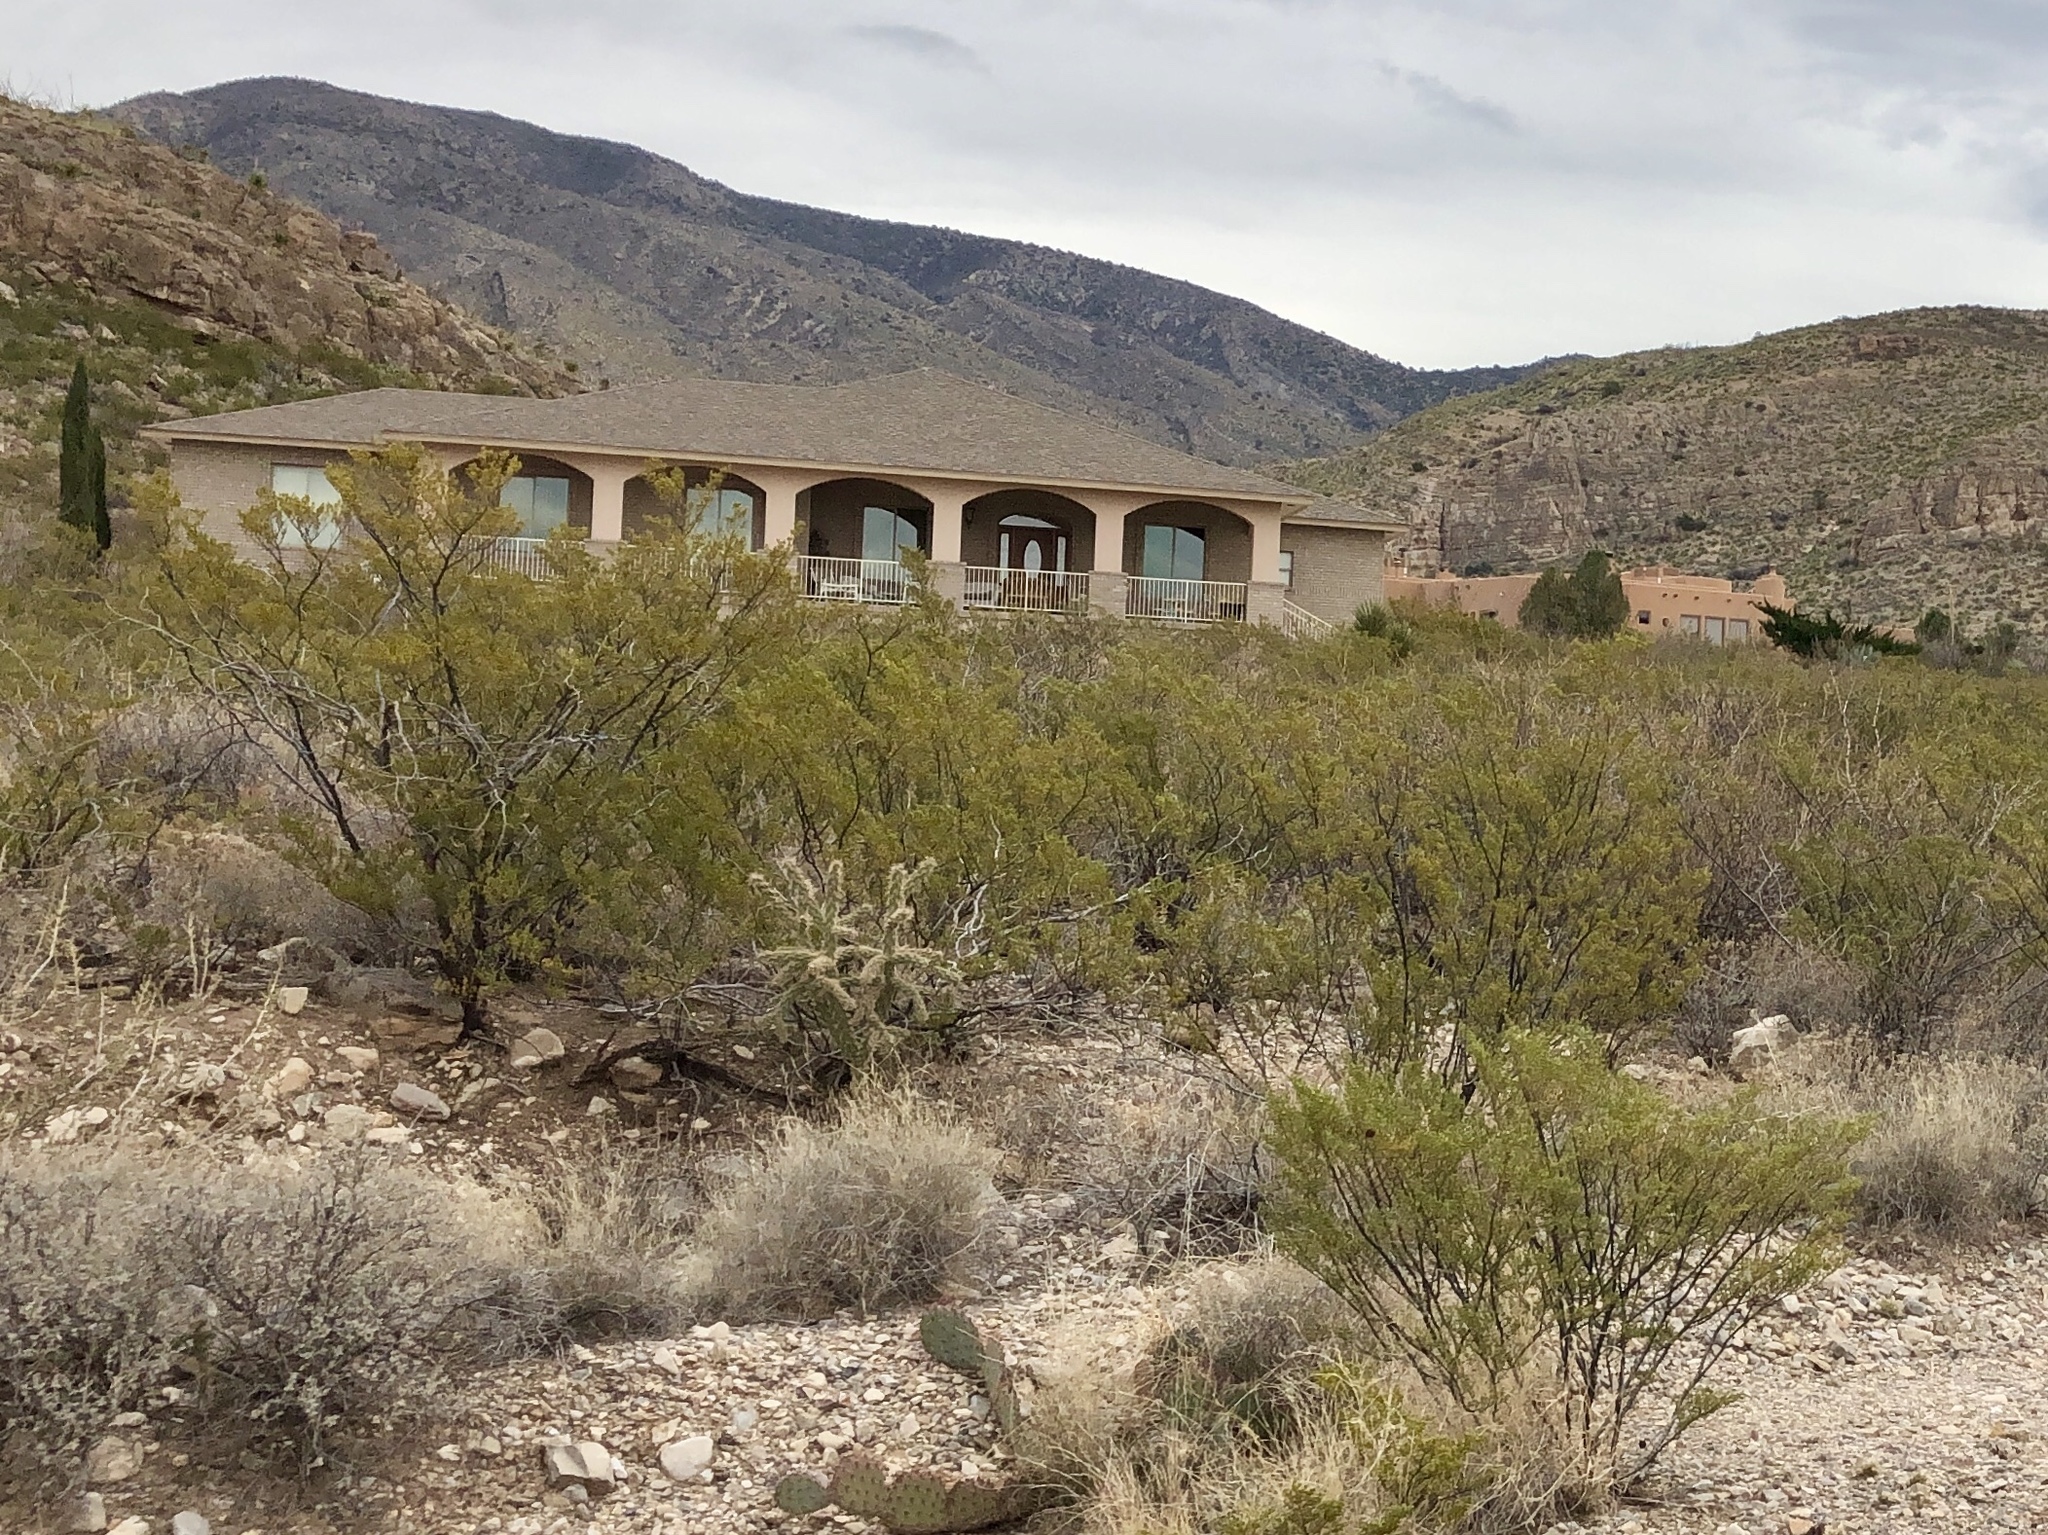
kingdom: Plantae
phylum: Tracheophyta
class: Magnoliopsida
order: Zygophyllales
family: Zygophyllaceae
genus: Larrea
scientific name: Larrea tridentata
